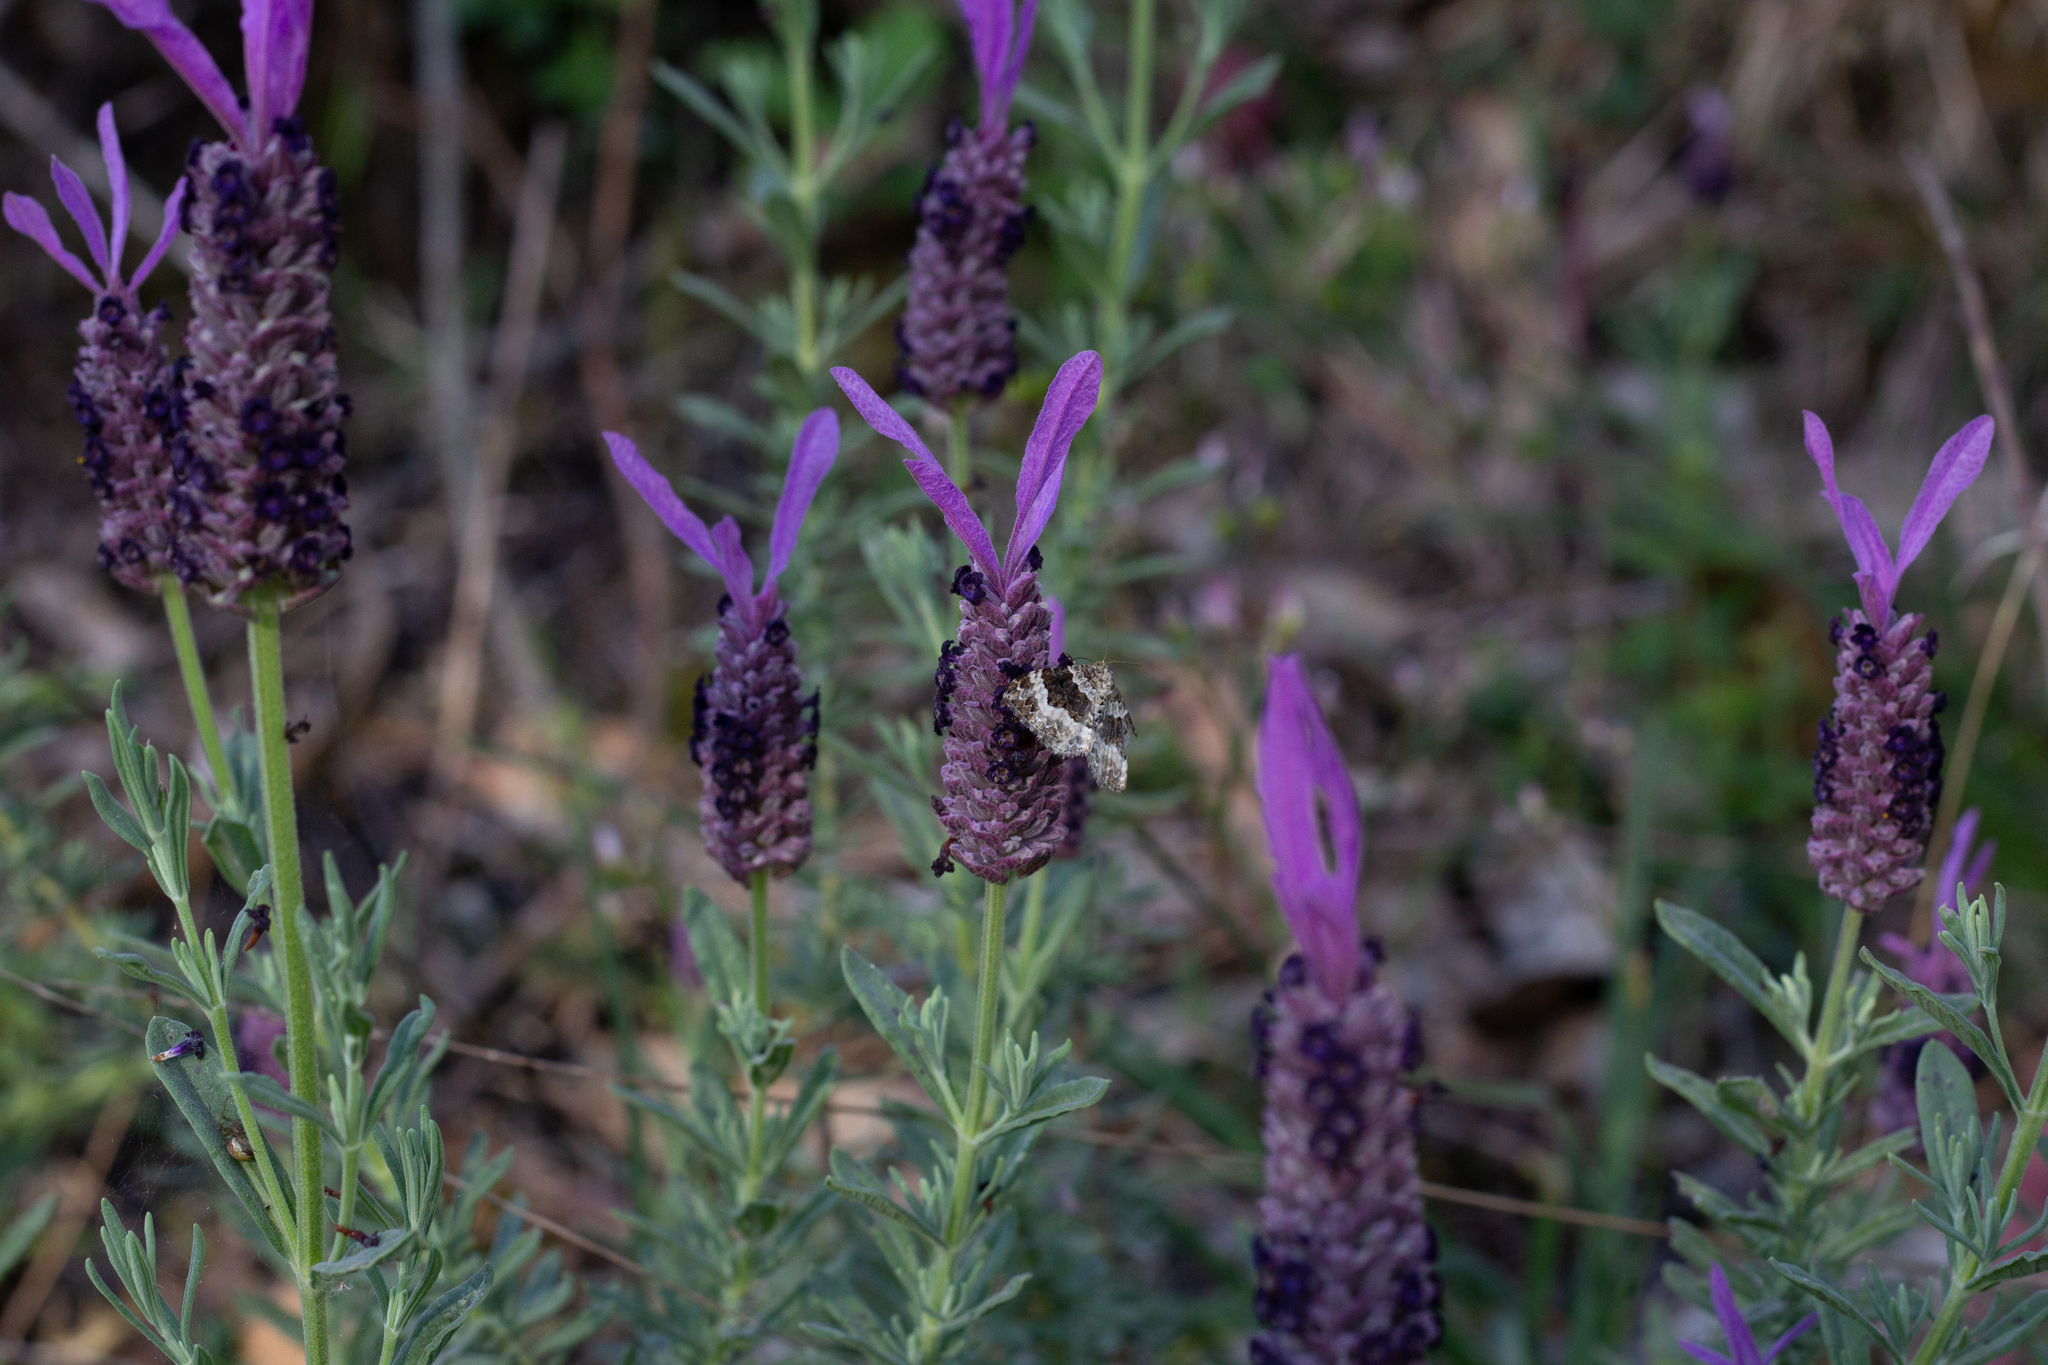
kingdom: Plantae
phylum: Tracheophyta
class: Magnoliopsida
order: Lamiales
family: Lamiaceae
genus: Lavandula
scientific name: Lavandula stoechas
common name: French lavender
